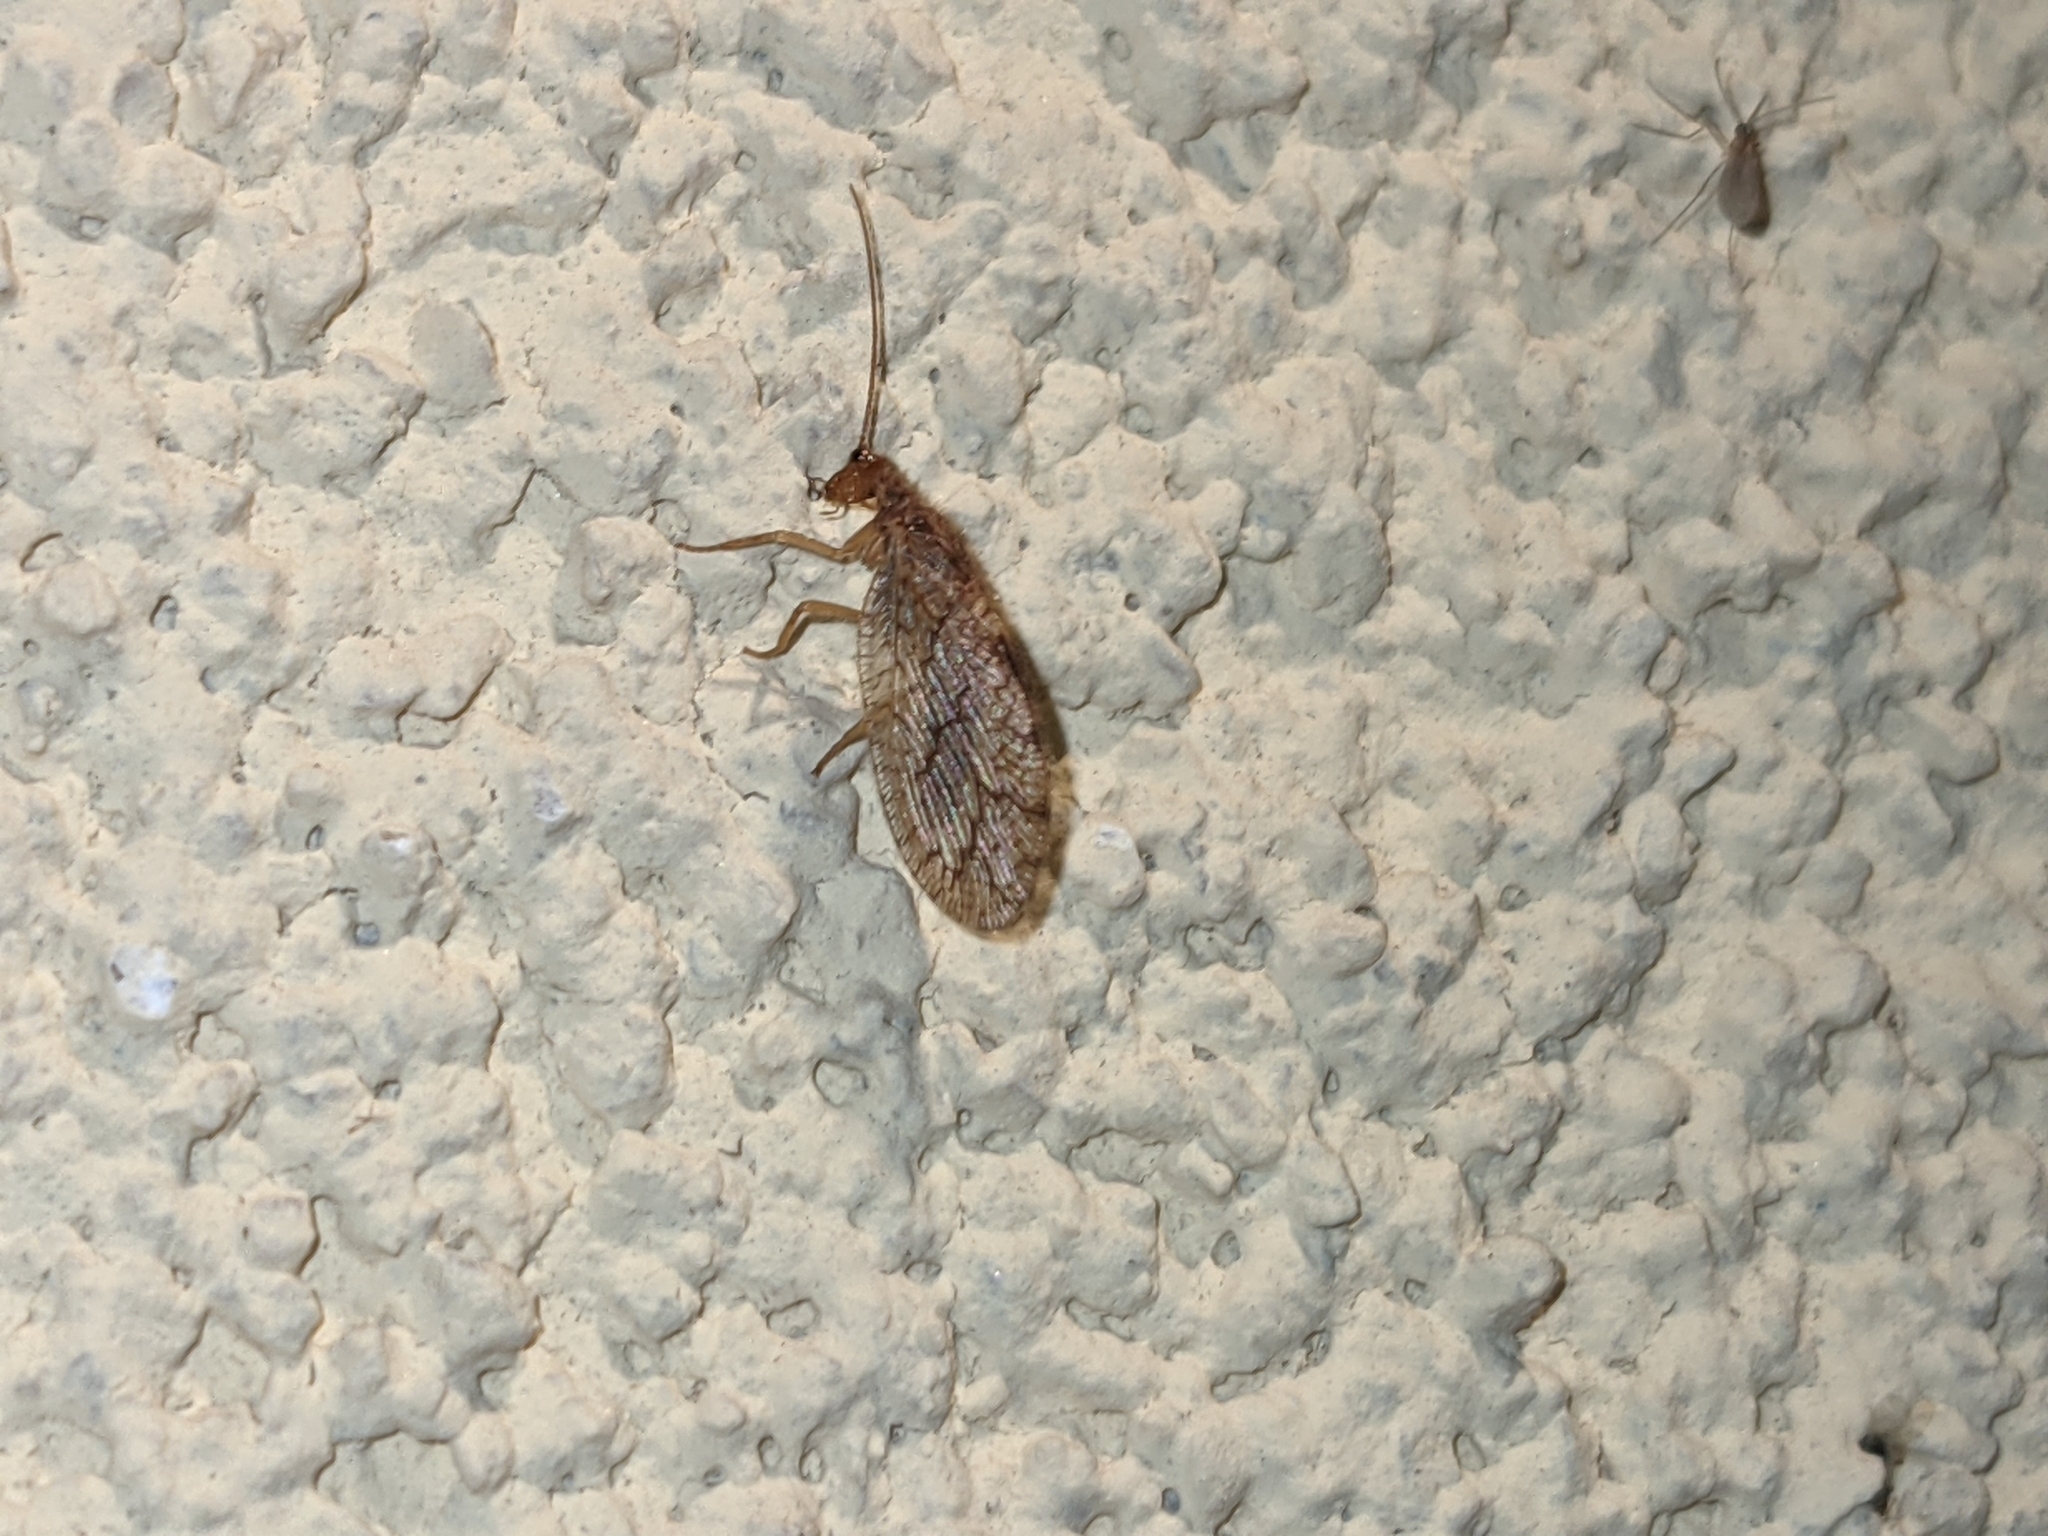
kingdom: Animalia
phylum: Arthropoda
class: Insecta
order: Neuroptera
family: Hemerobiidae
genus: Micromus
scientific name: Micromus angulatus
